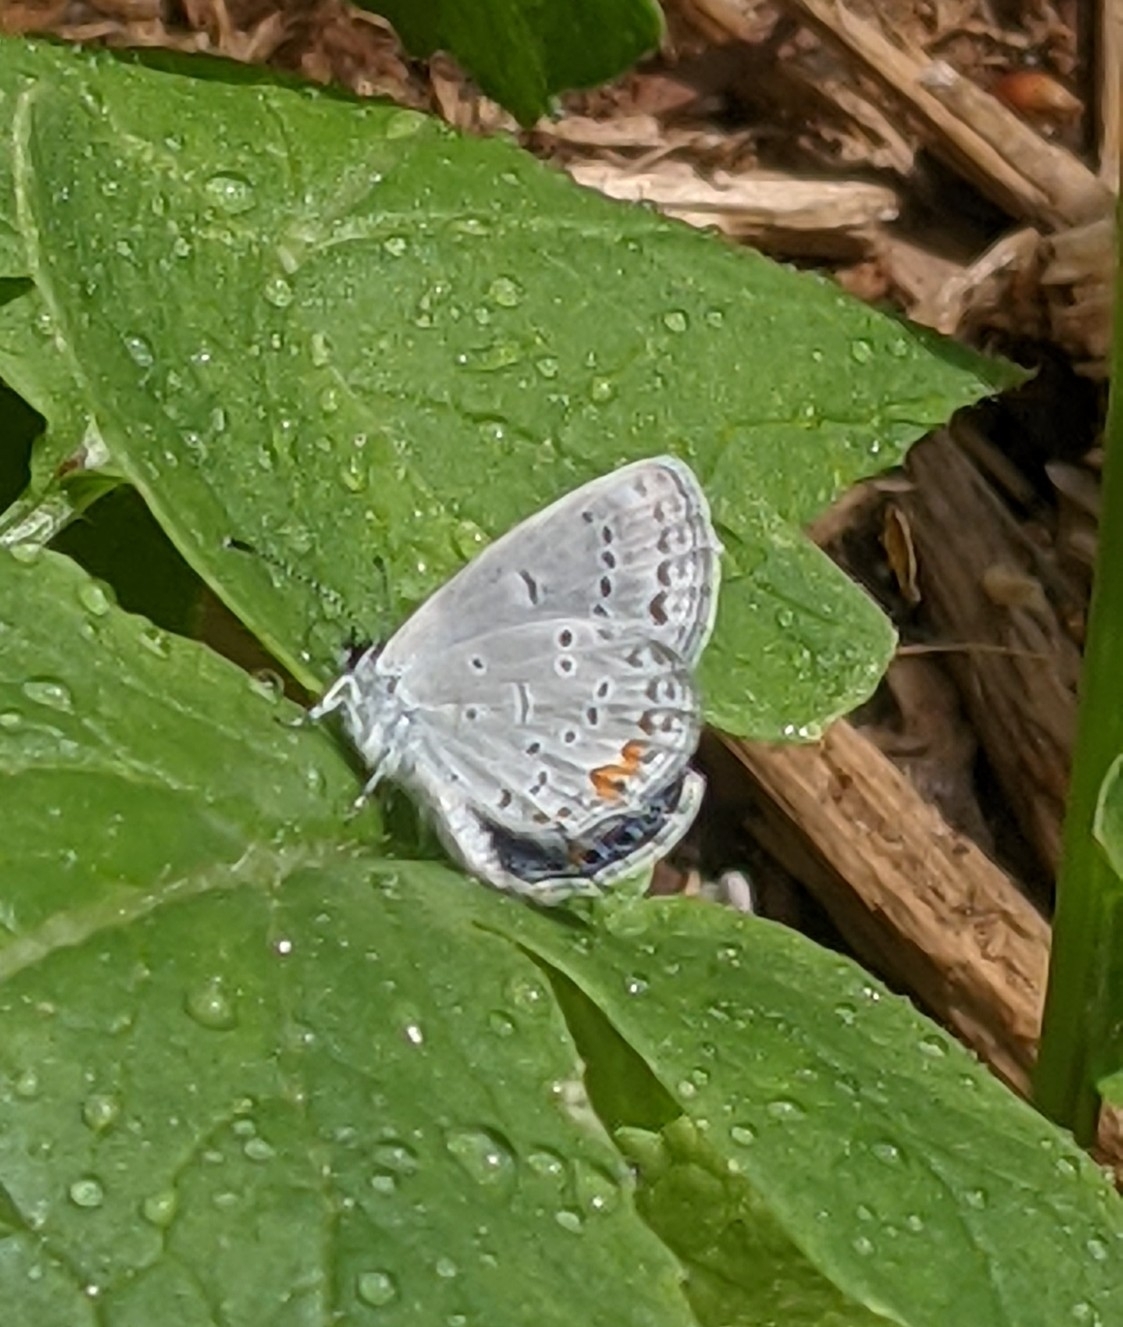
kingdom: Animalia
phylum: Arthropoda
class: Insecta
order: Lepidoptera
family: Lycaenidae
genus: Elkalyce
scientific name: Elkalyce comyntas
